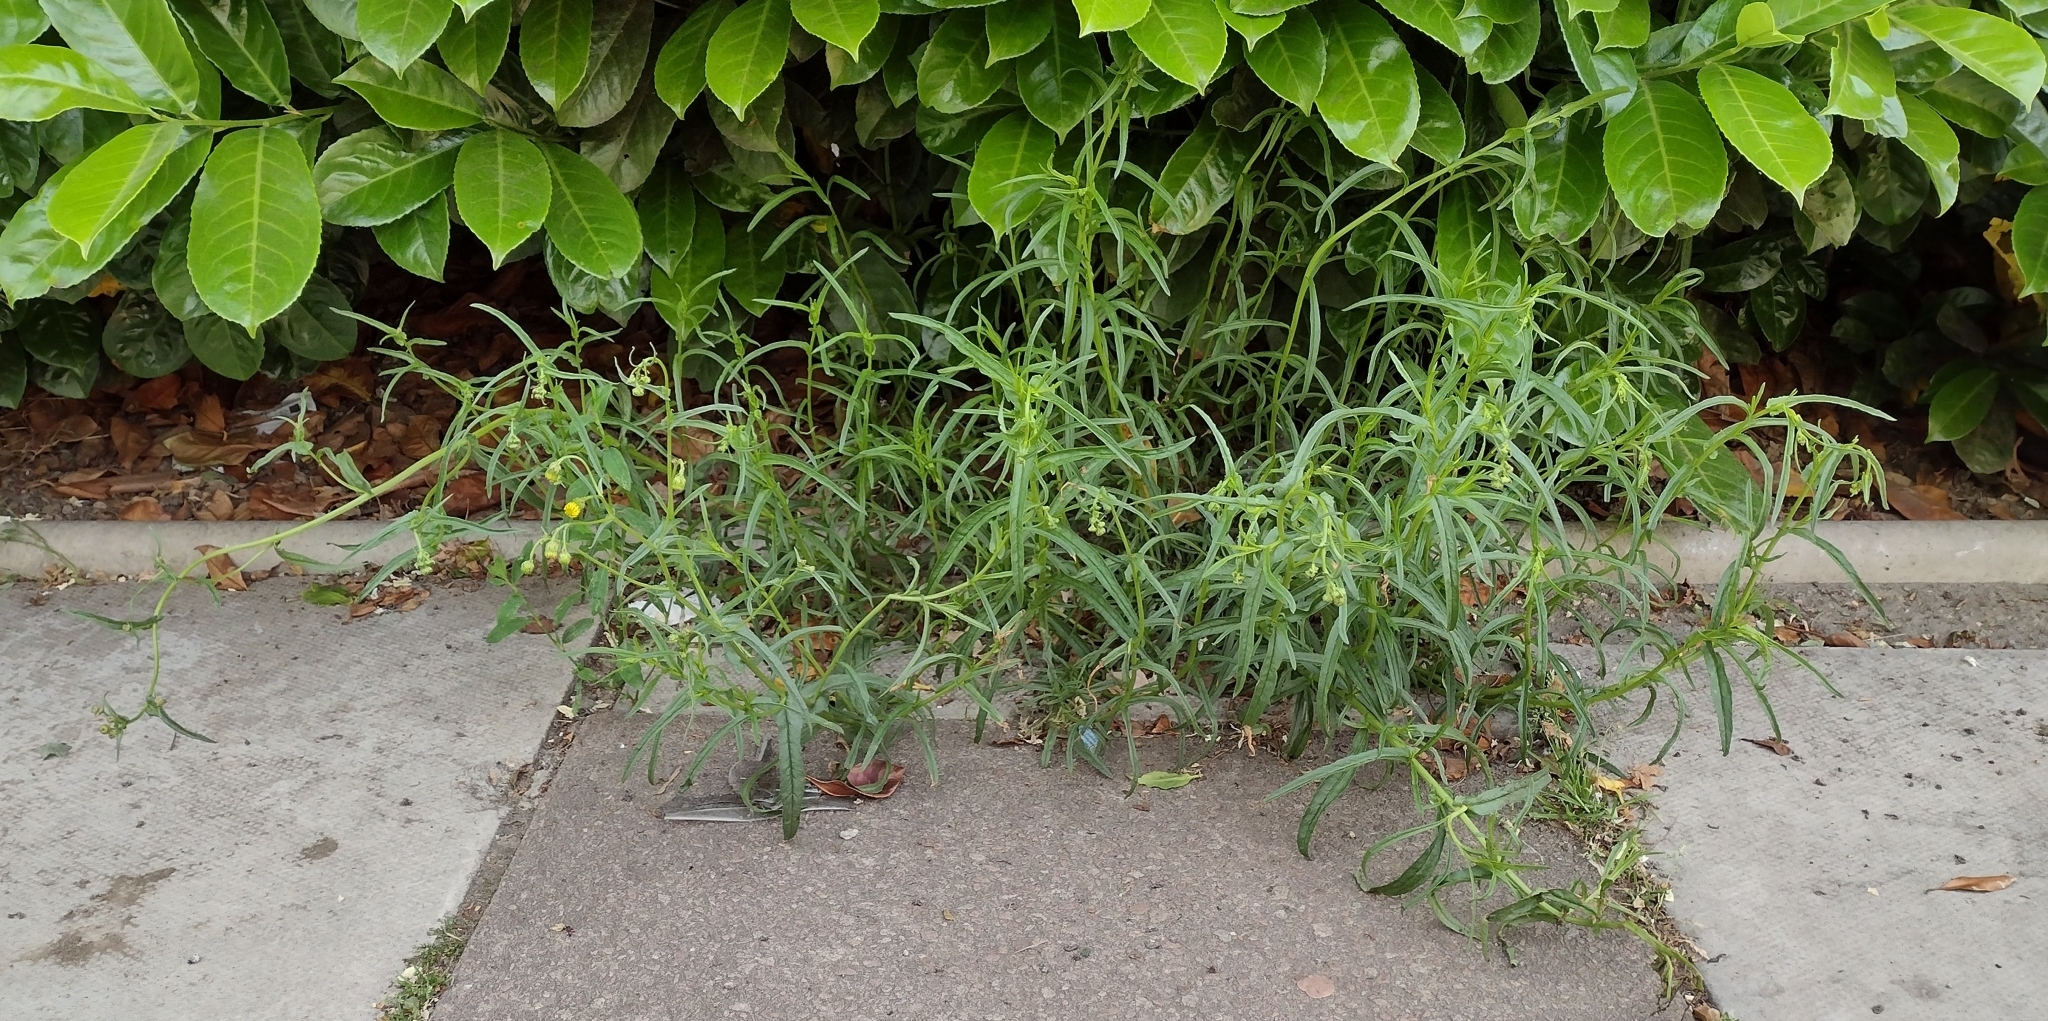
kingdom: Plantae
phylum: Tracheophyta
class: Magnoliopsida
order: Asterales
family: Asteraceae
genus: Senecio
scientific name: Senecio inaequidens
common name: Narrow-leaved ragwort
